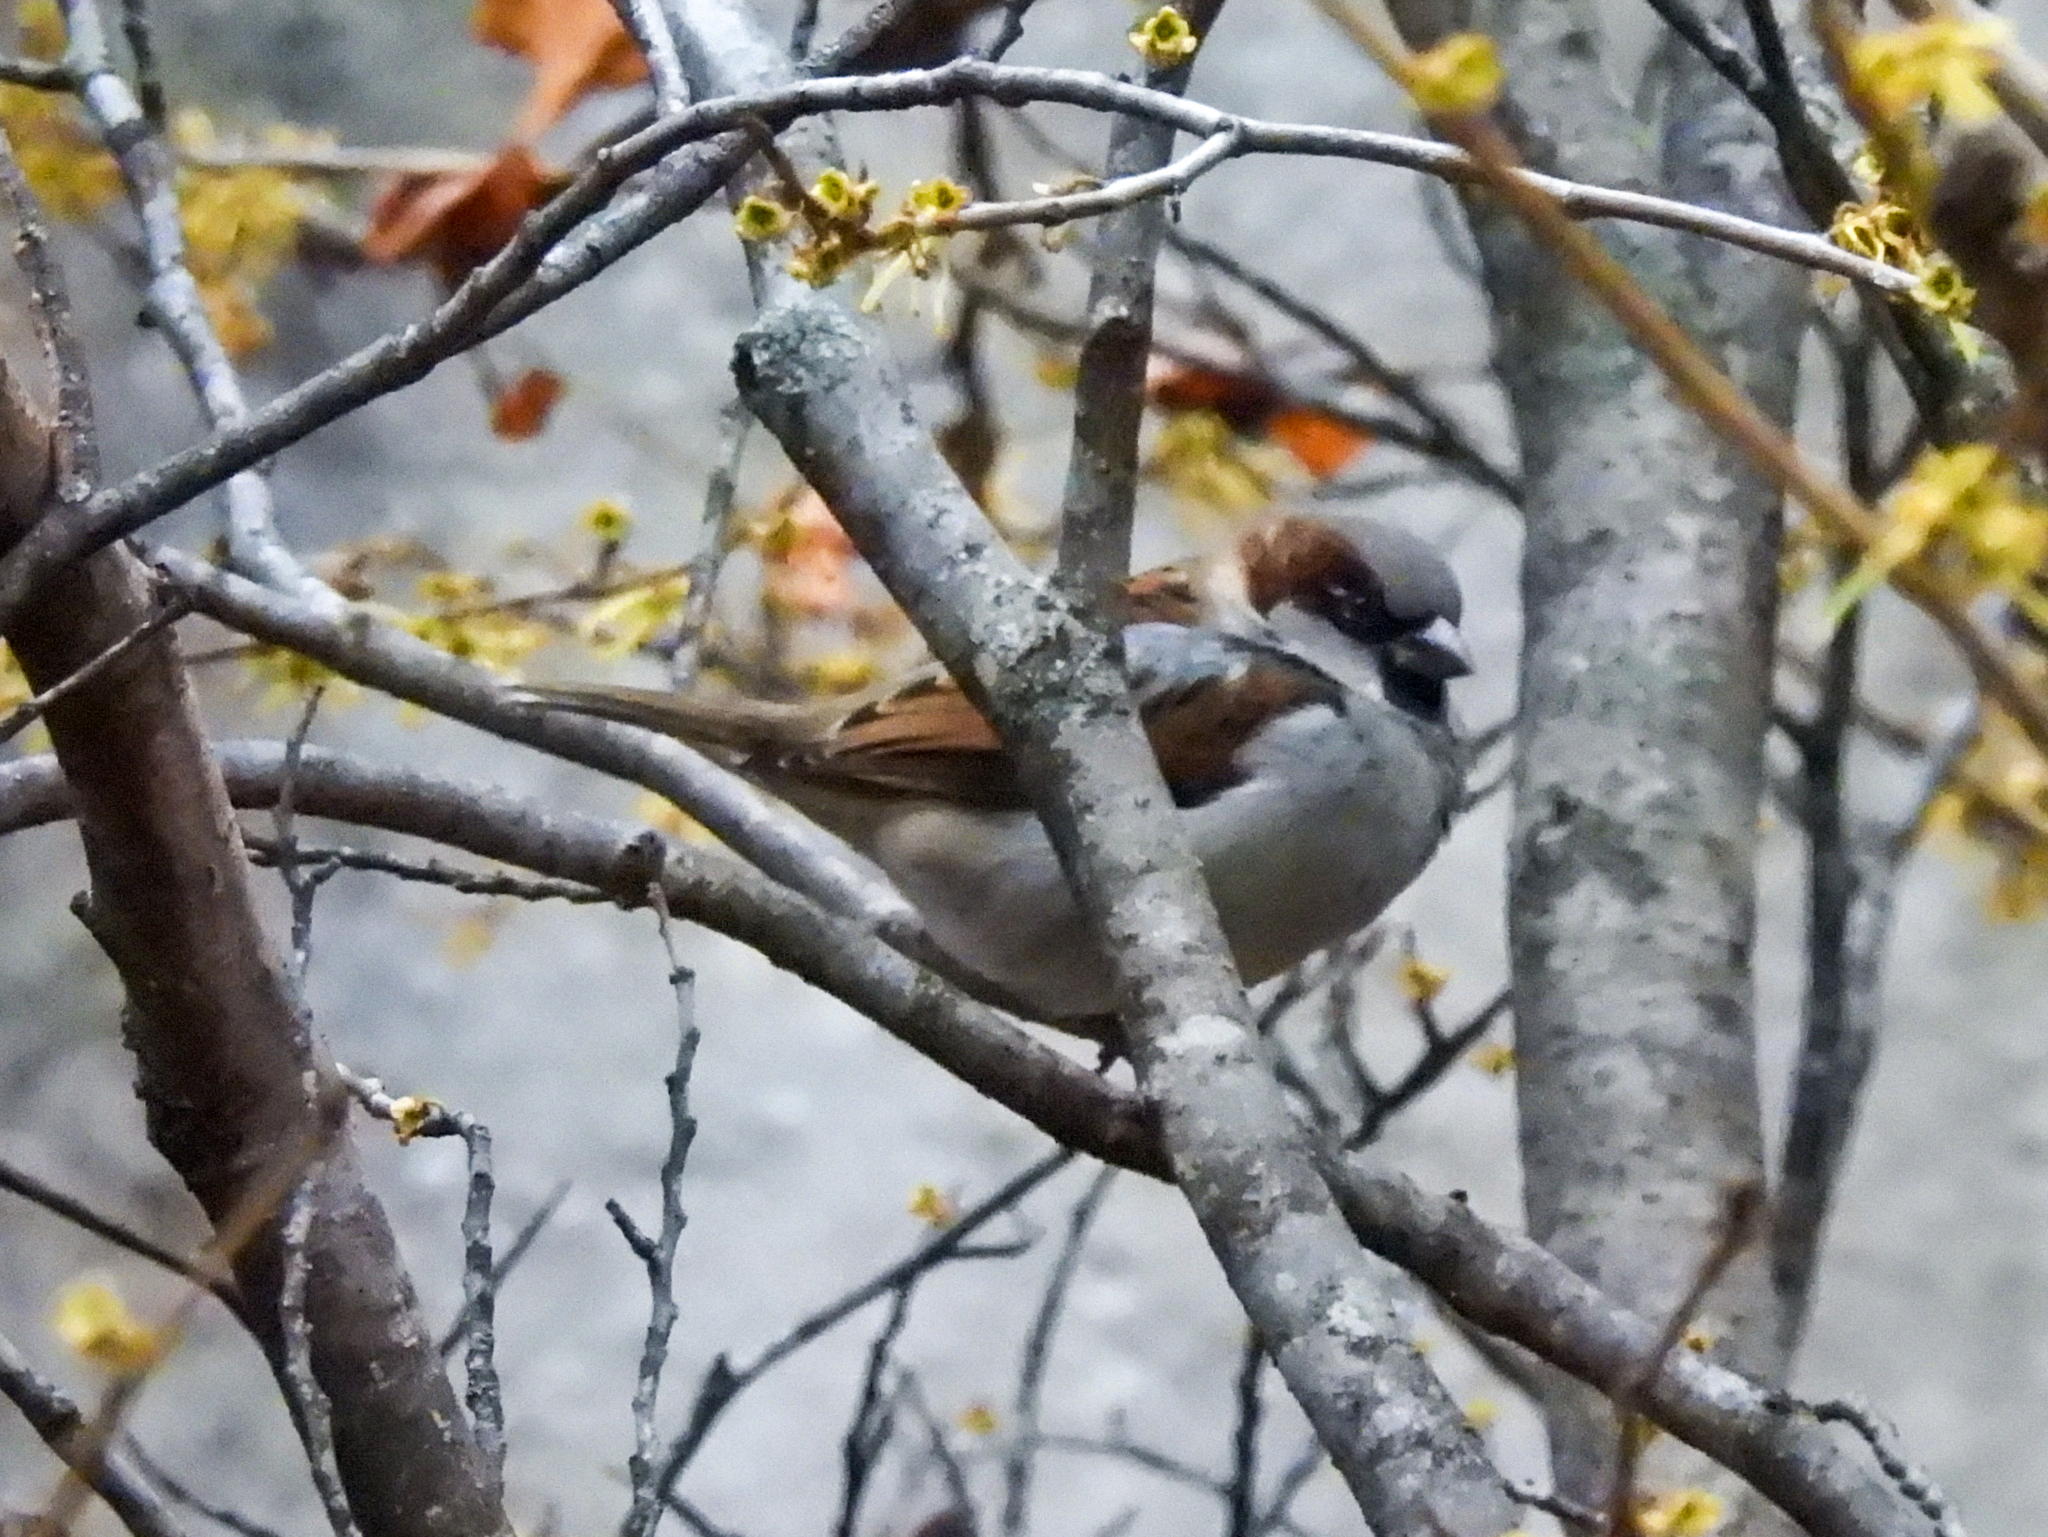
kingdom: Animalia
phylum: Chordata
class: Aves
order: Passeriformes
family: Passeridae
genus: Passer
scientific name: Passer domesticus
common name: House sparrow
